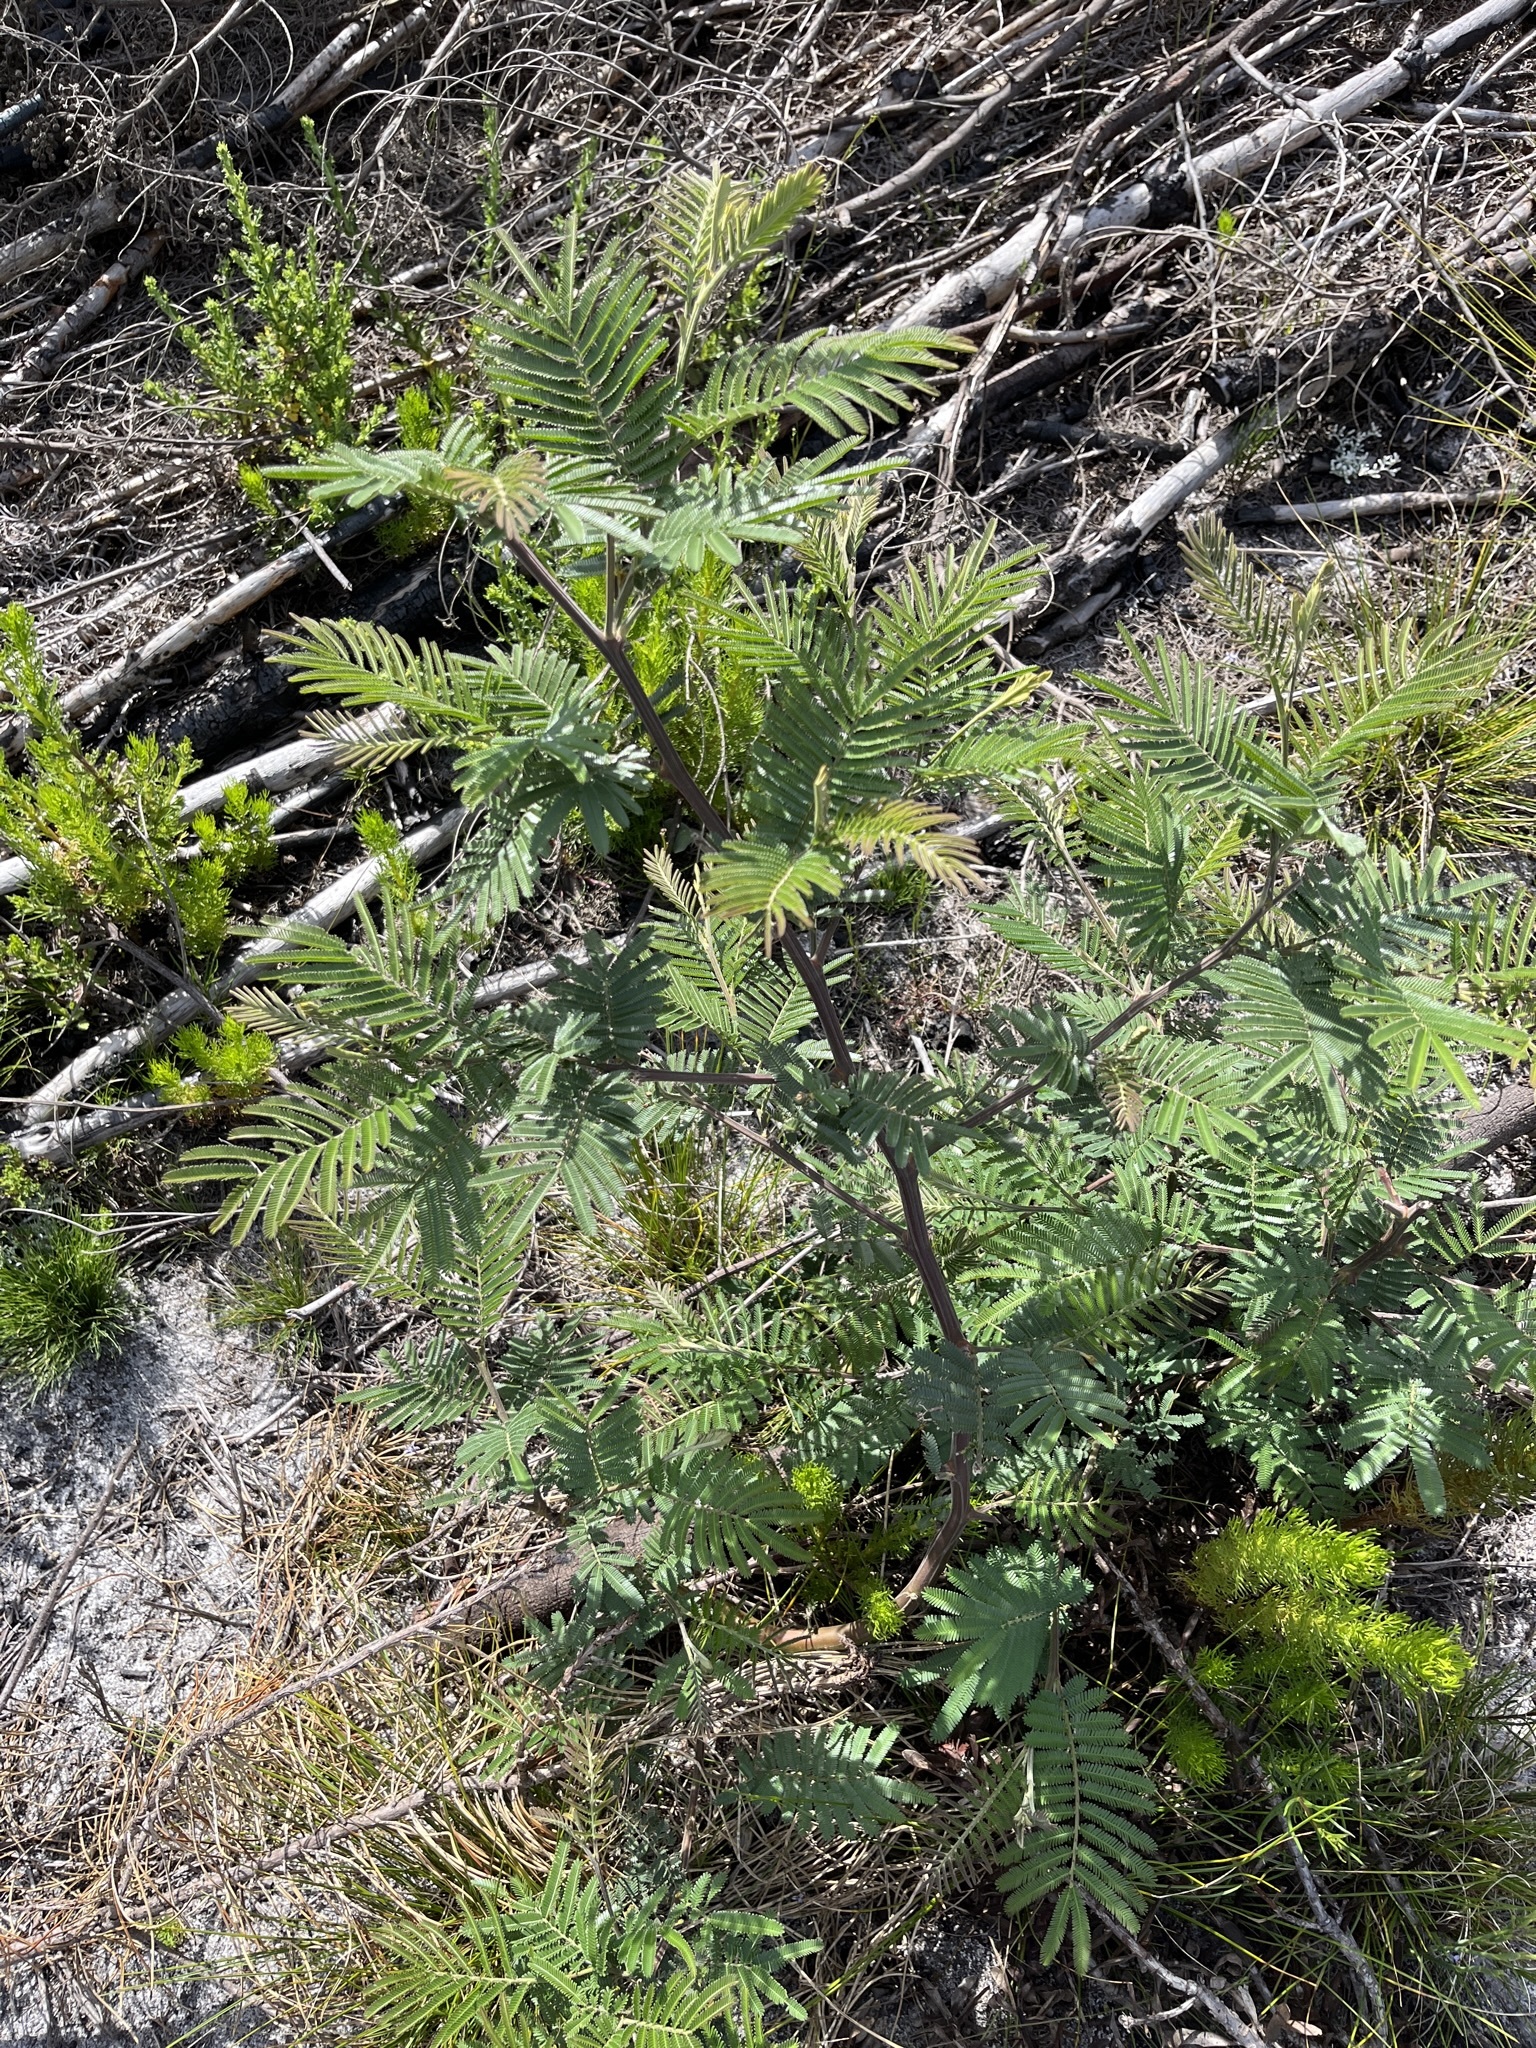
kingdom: Plantae
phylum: Tracheophyta
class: Magnoliopsida
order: Fabales
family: Fabaceae
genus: Acacia
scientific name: Acacia mearnsii
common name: Black wattle
